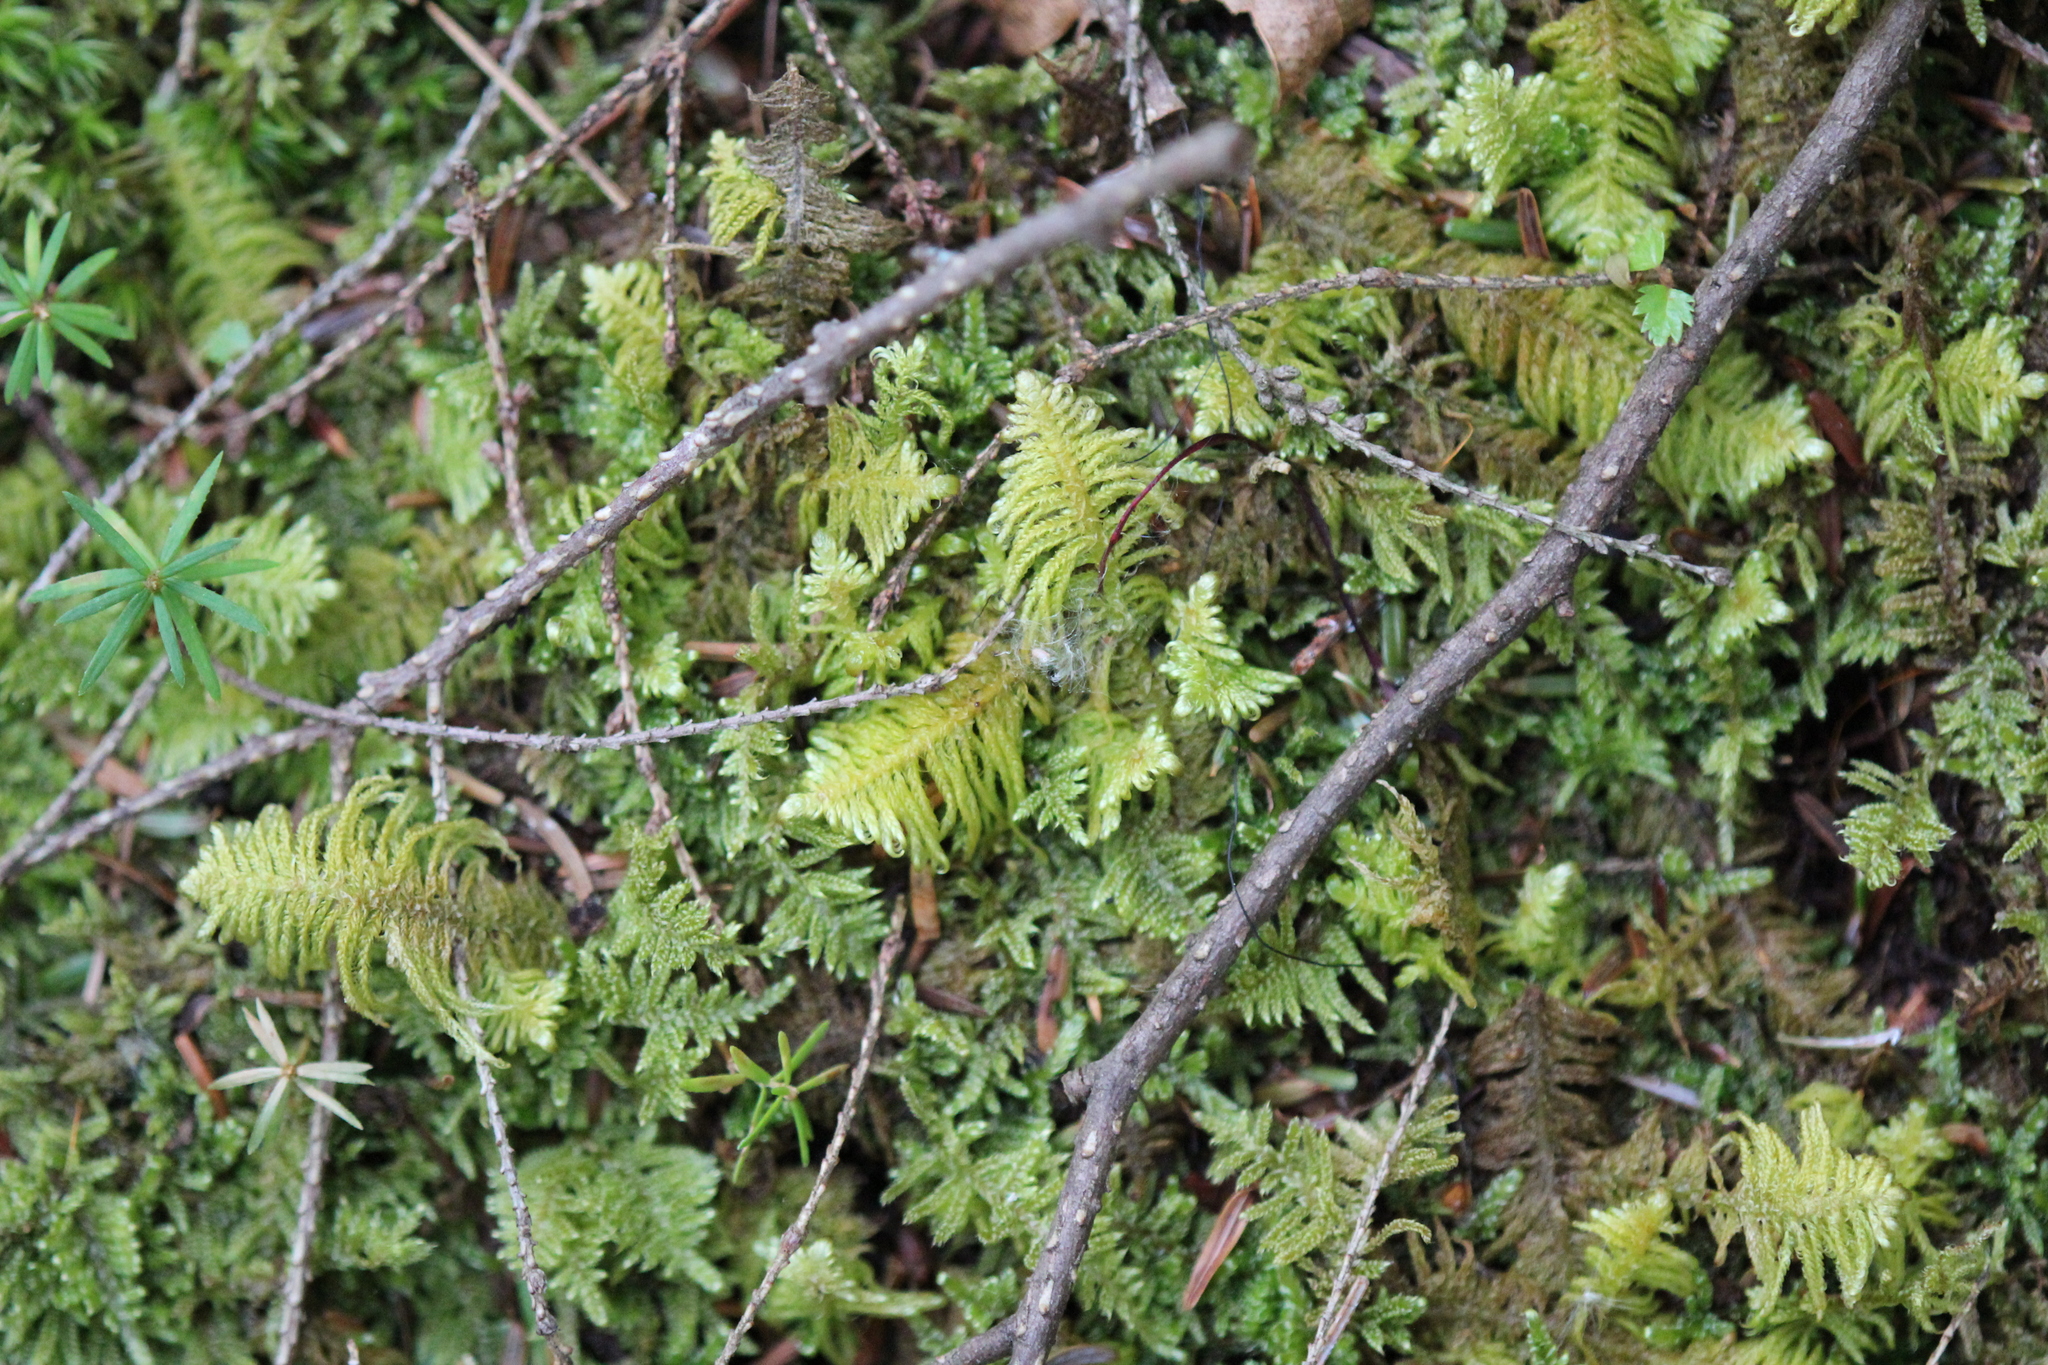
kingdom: Plantae
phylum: Bryophyta
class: Bryopsida
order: Hypnales
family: Pylaisiaceae
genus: Ptilium
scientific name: Ptilium crista-castrensis
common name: Knight's plume moss
